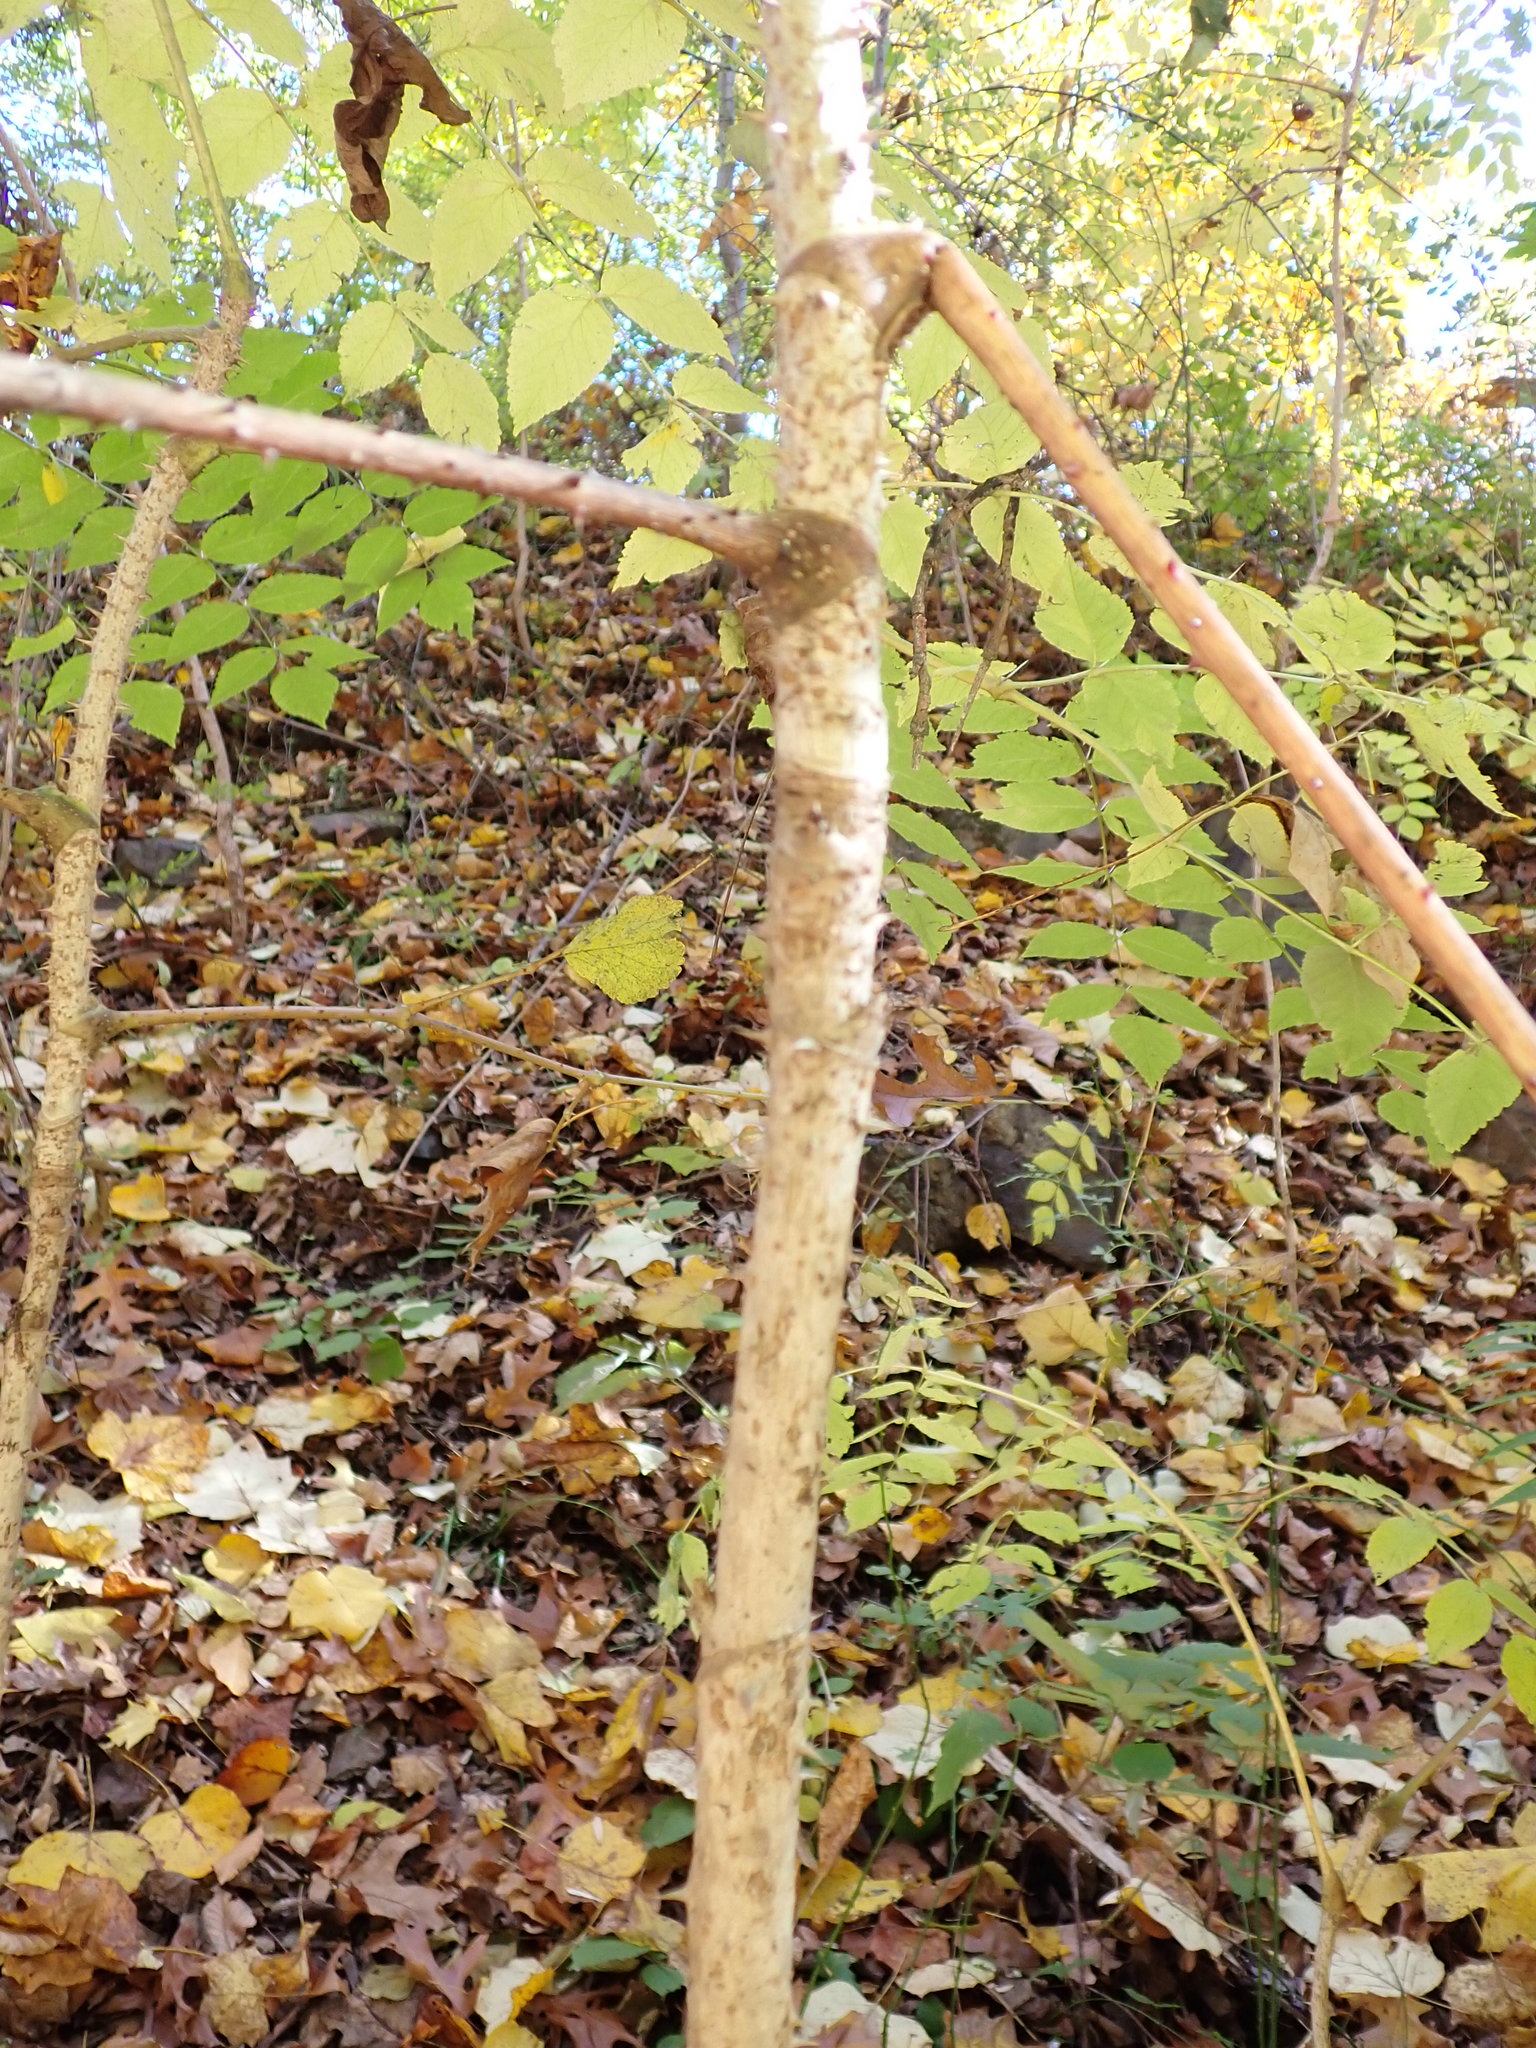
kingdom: Plantae
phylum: Tracheophyta
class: Magnoliopsida
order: Apiales
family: Araliaceae
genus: Aralia
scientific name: Aralia elata
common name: Japanese angelica-tree
